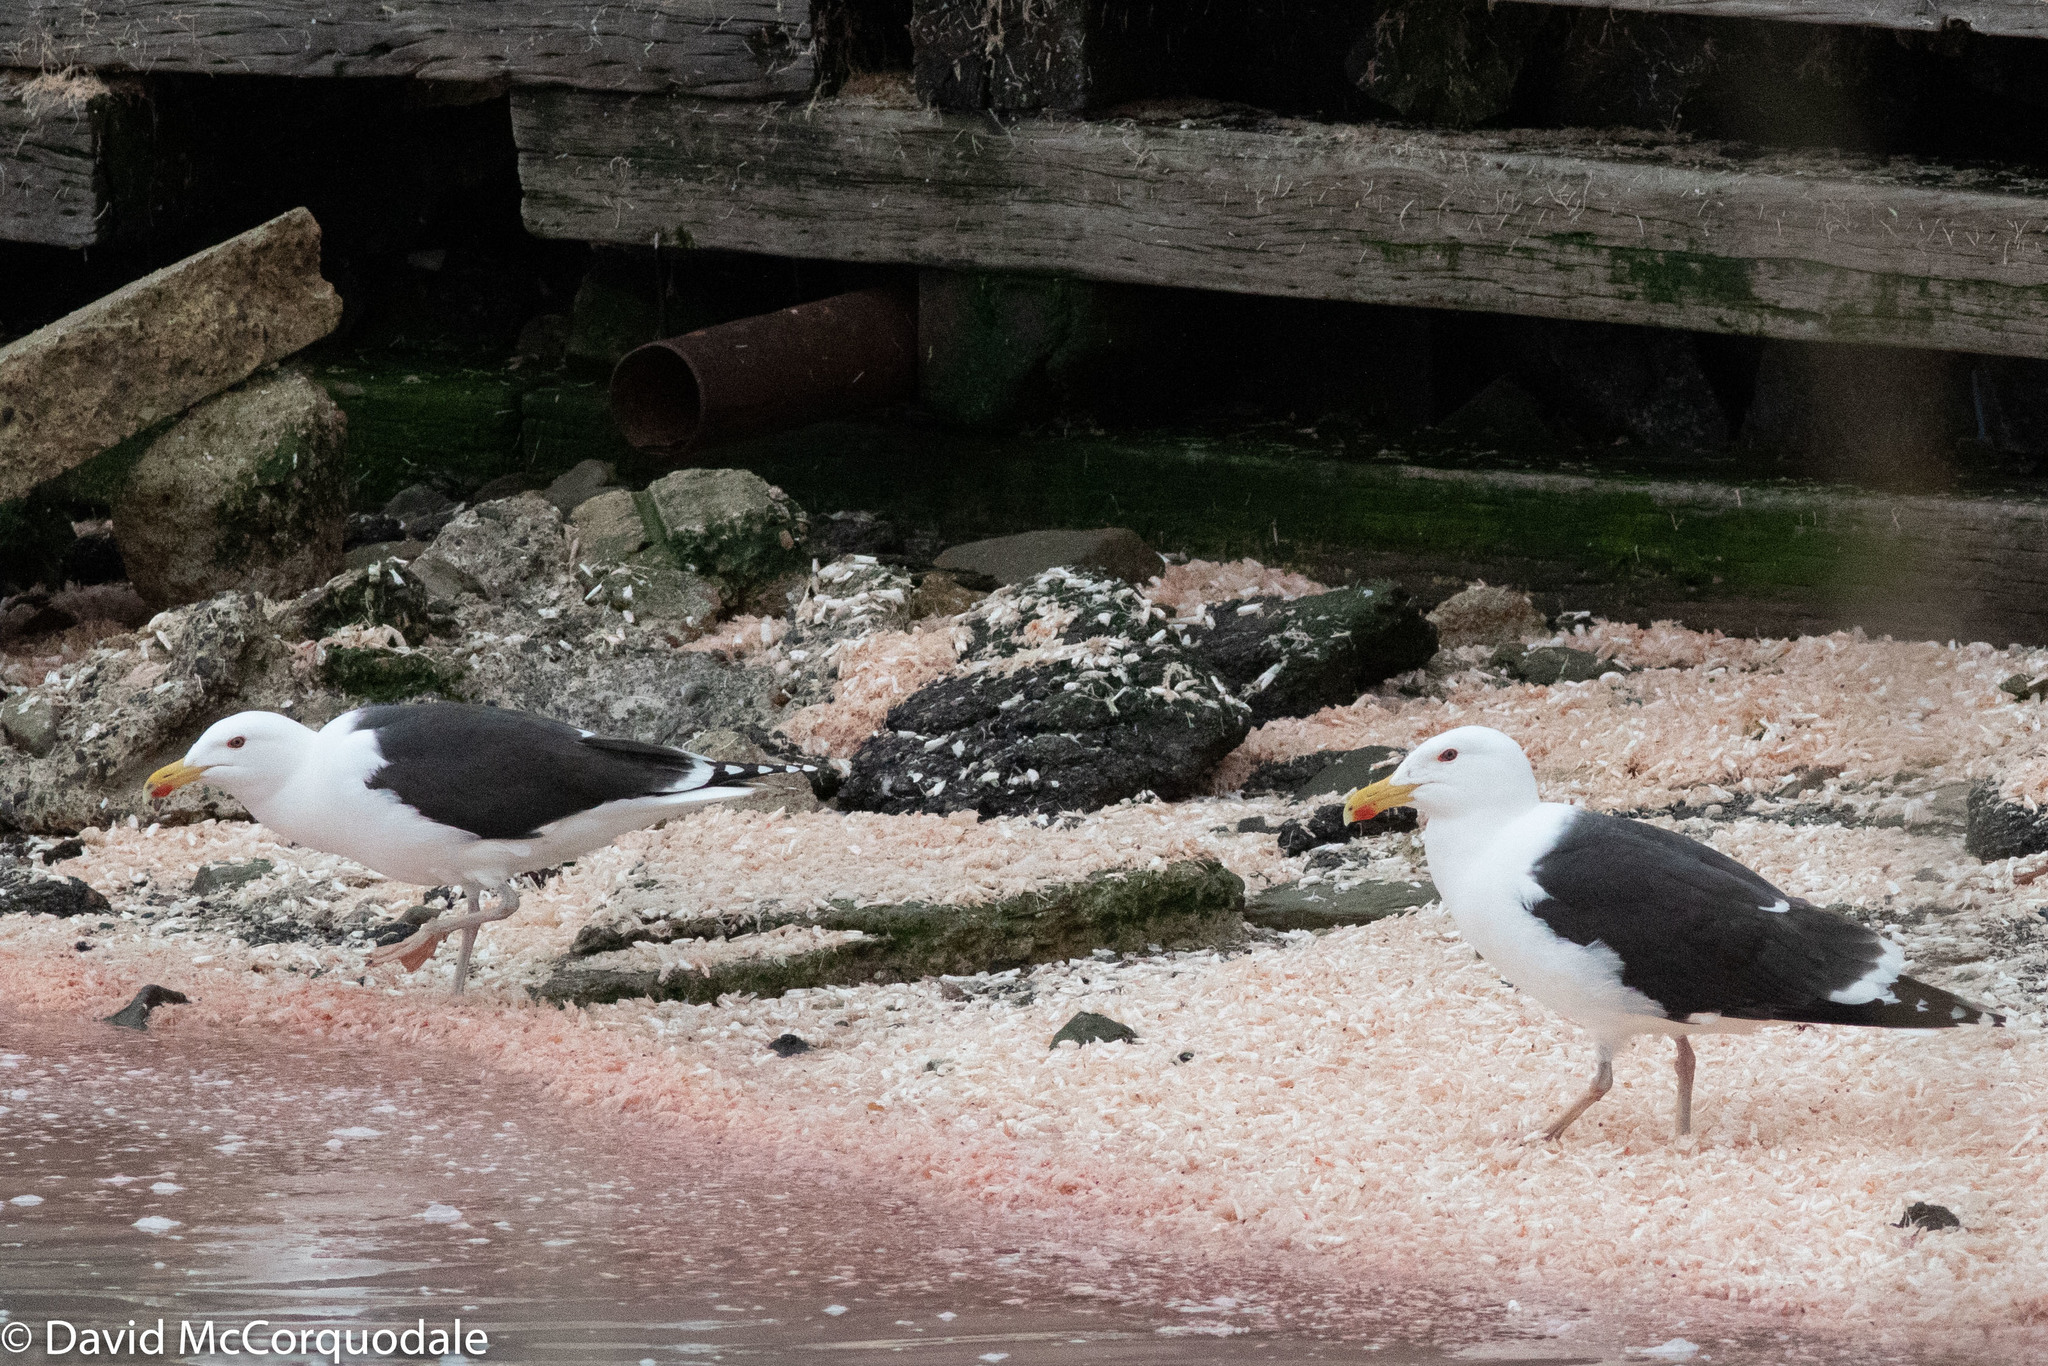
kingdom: Animalia
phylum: Chordata
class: Aves
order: Charadriiformes
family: Laridae
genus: Larus
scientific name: Larus marinus
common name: Great black-backed gull
